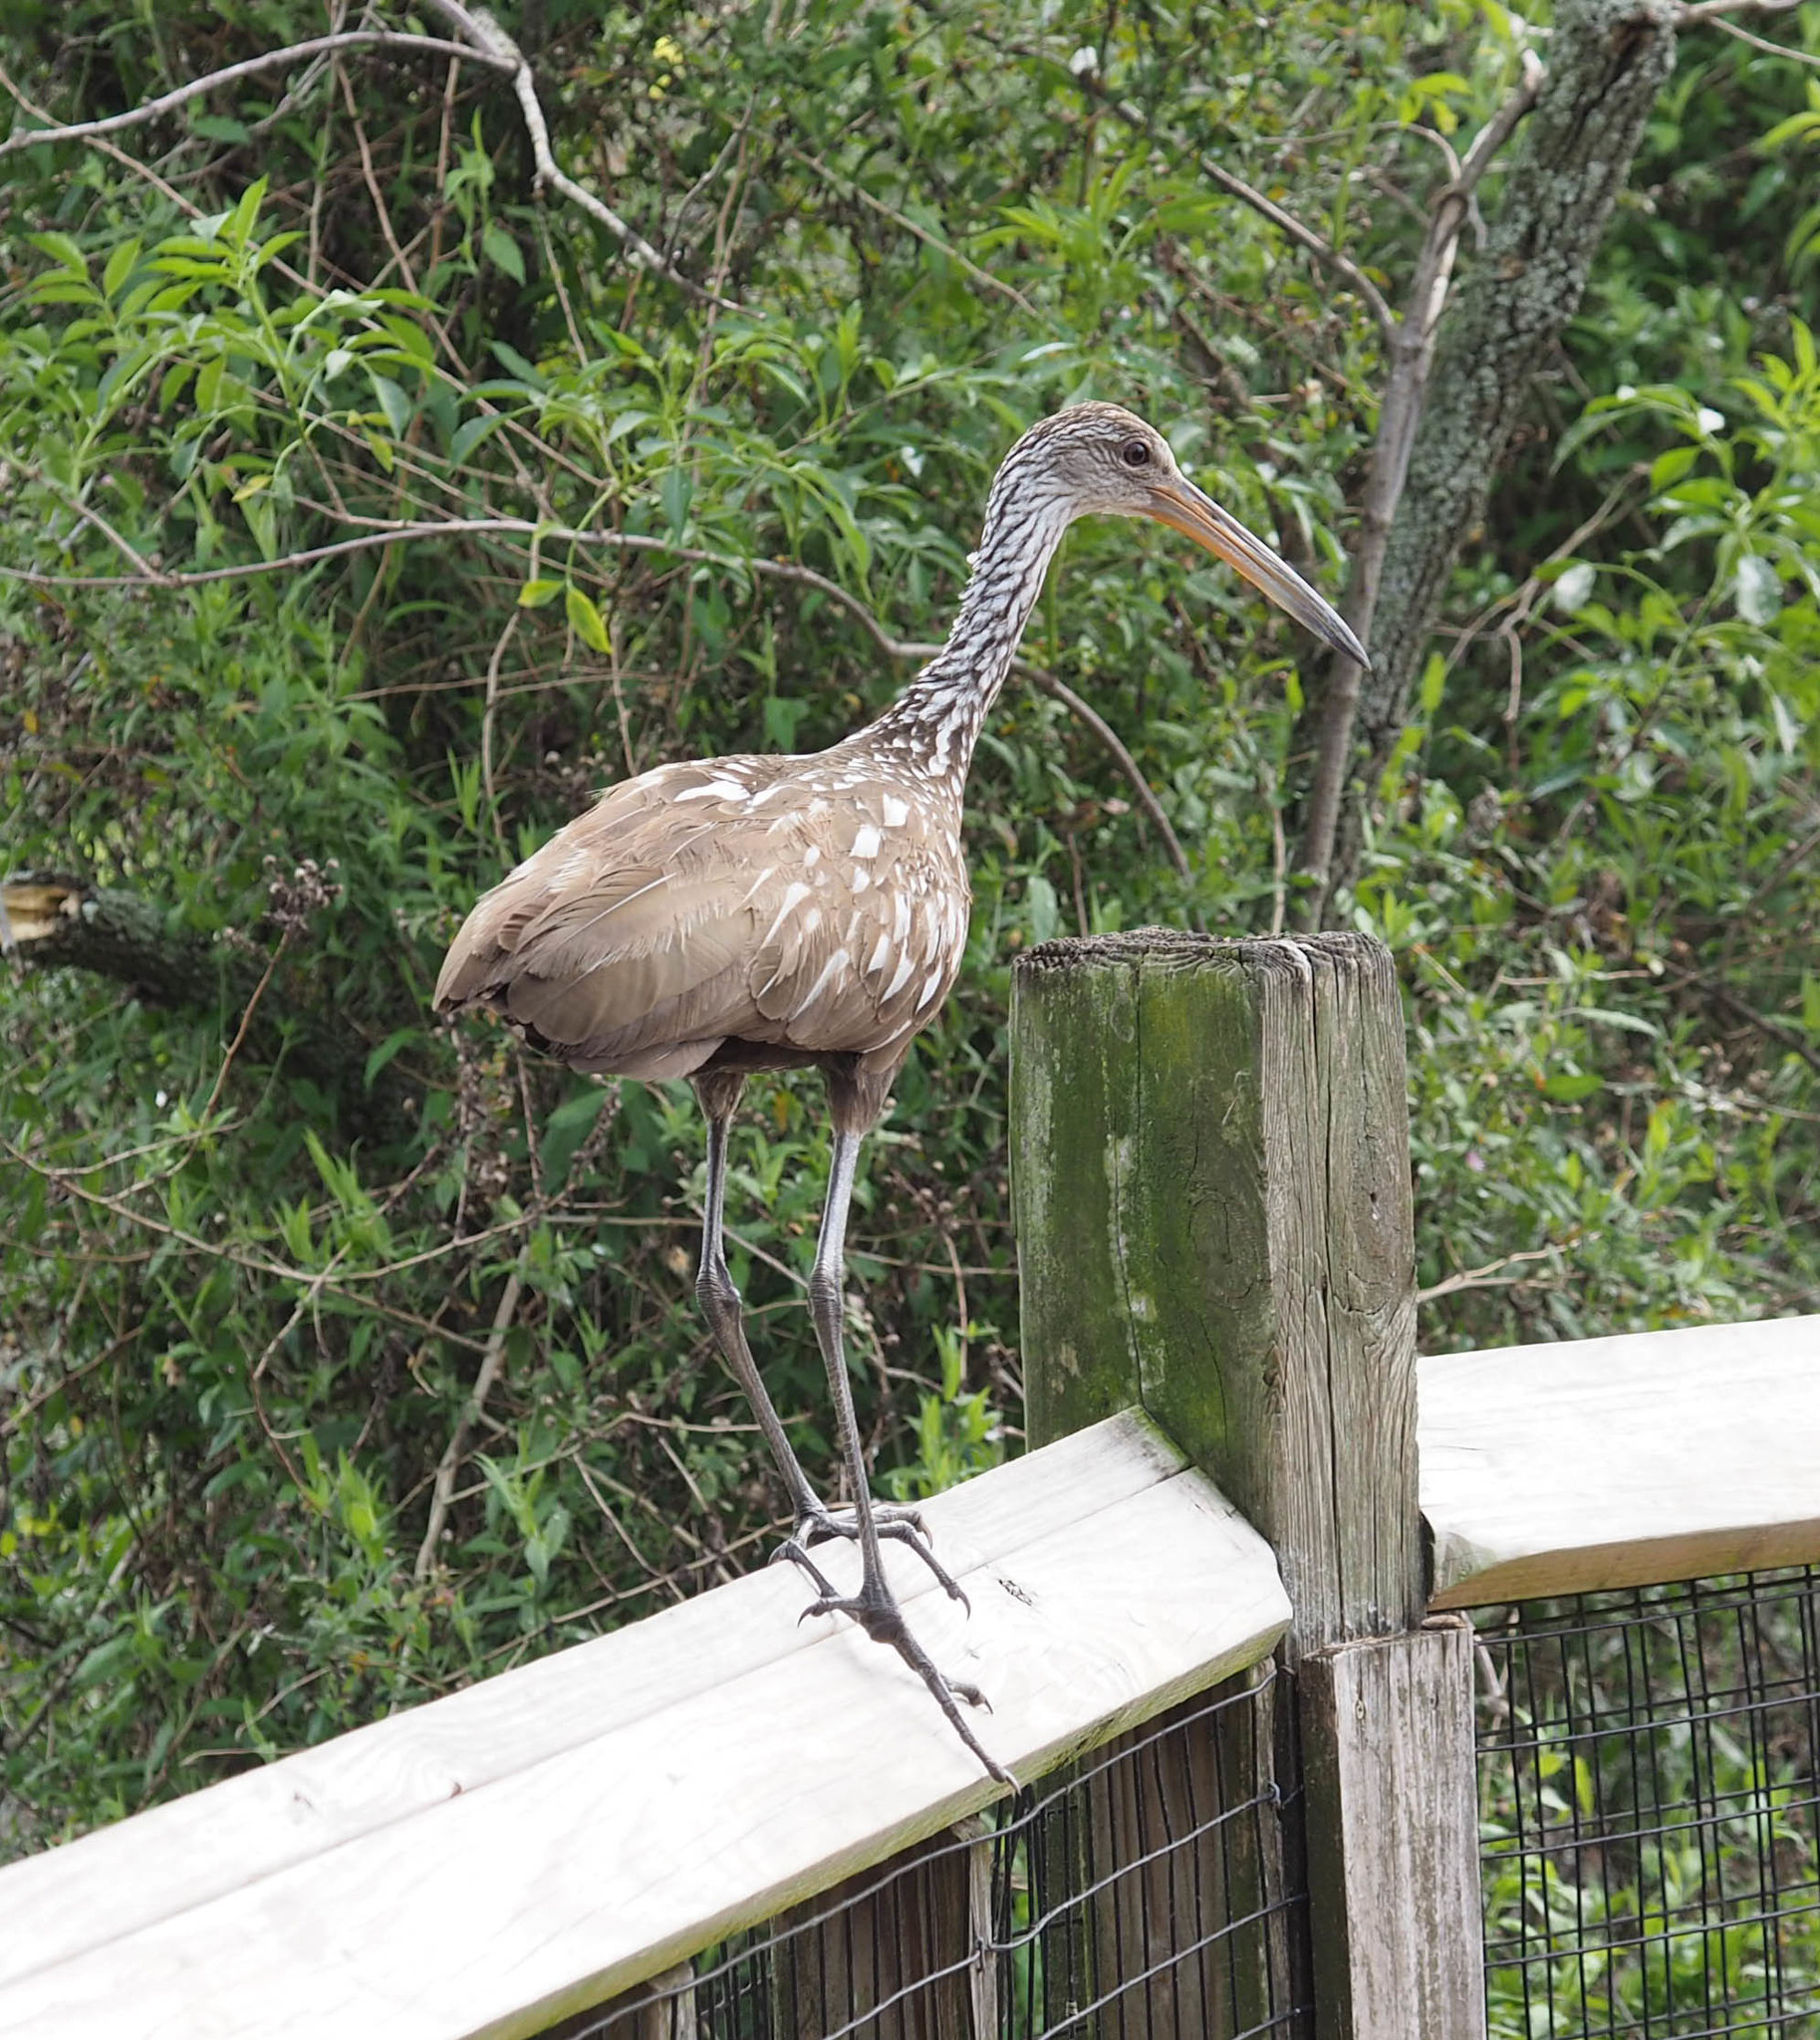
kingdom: Animalia
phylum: Chordata
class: Aves
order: Gruiformes
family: Aramidae
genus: Aramus
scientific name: Aramus guarauna
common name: Limpkin
